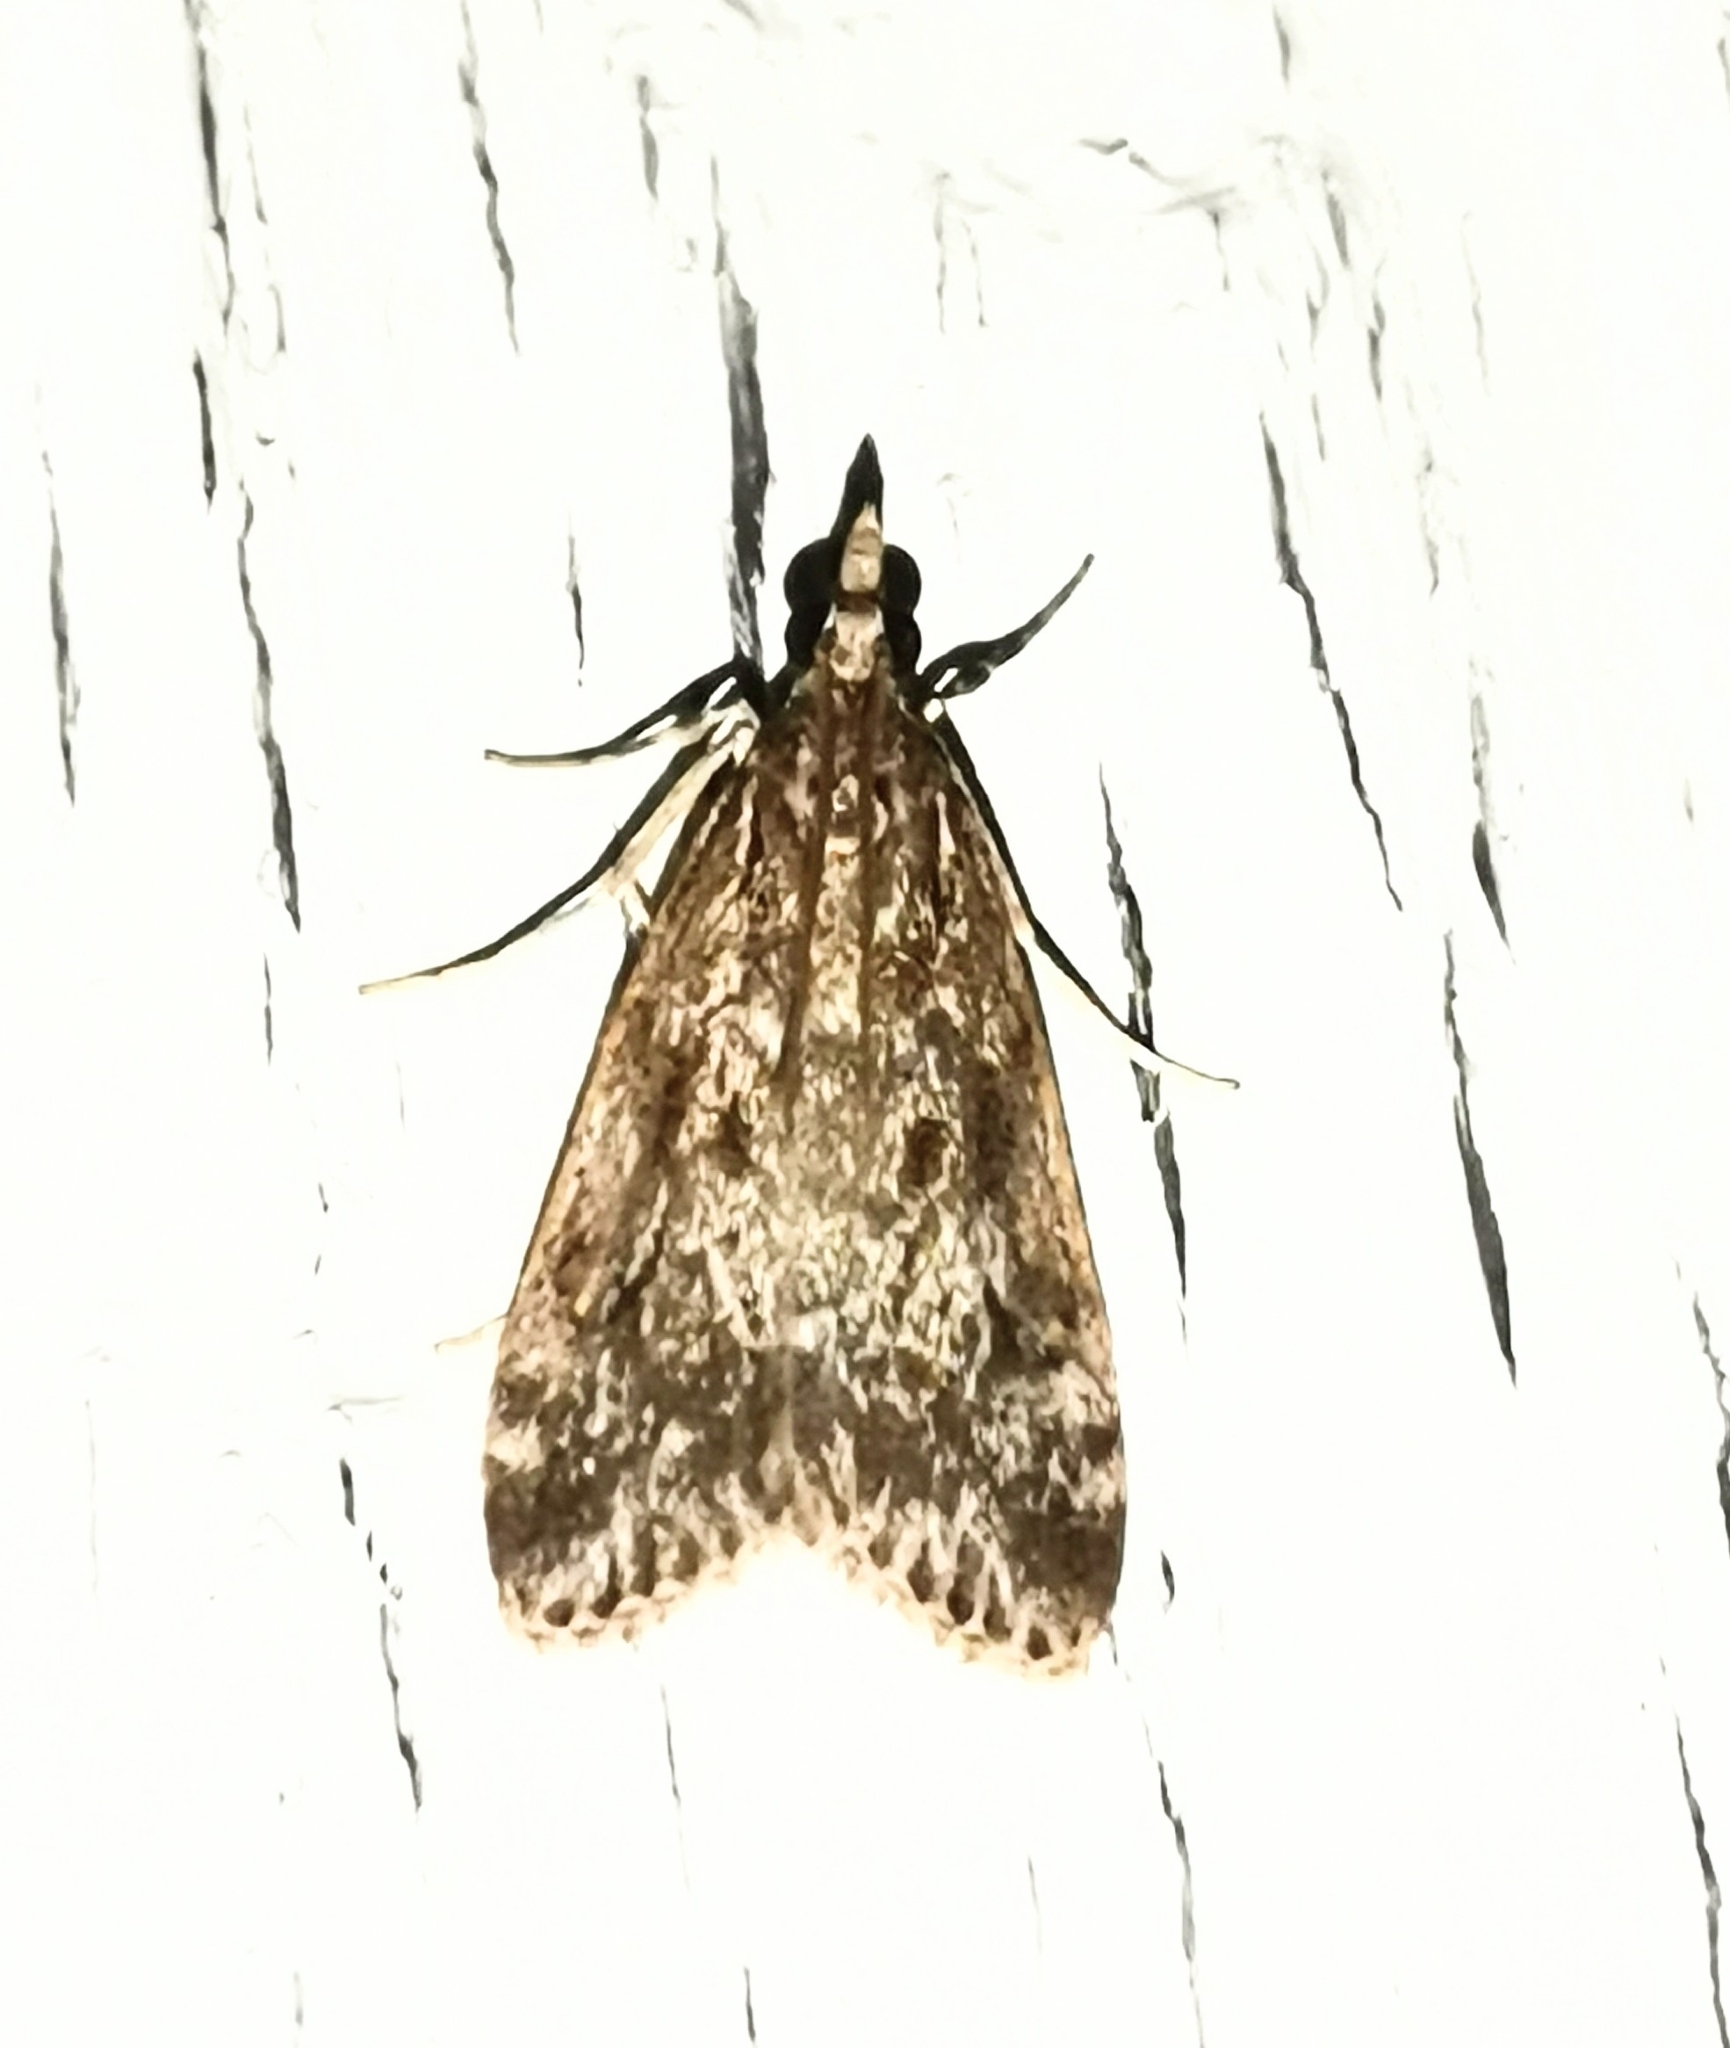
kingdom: Animalia
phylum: Arthropoda
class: Insecta
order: Lepidoptera
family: Crambidae
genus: Eudonia
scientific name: Eudonia truncicolella
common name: Ground-moss grey
